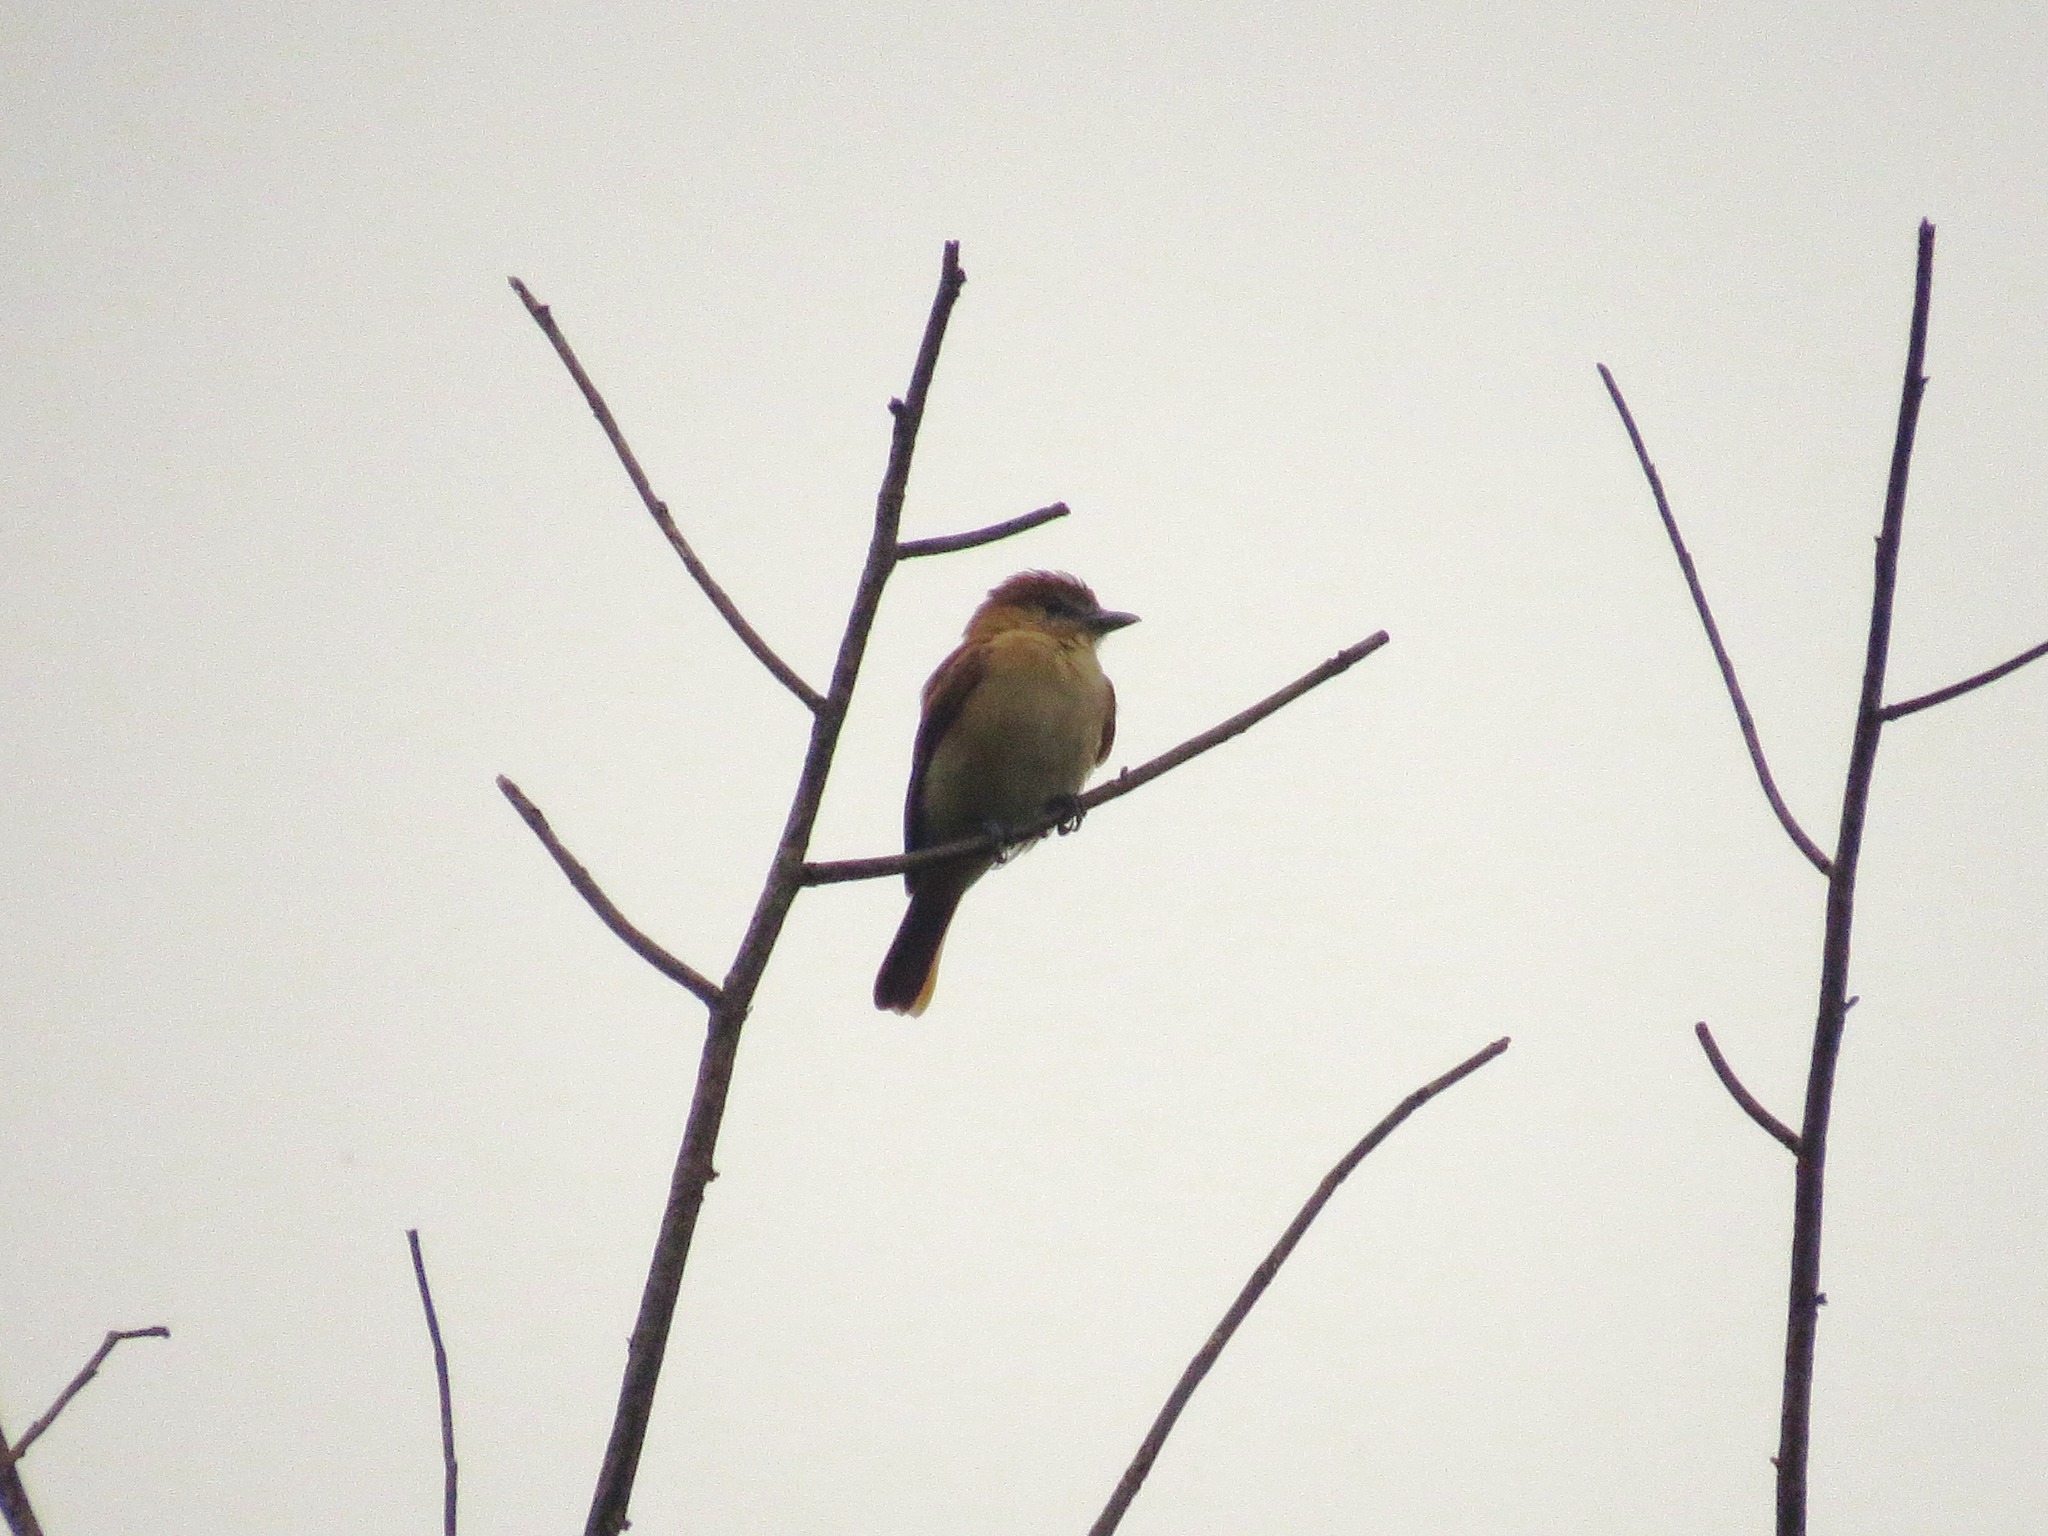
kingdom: Animalia
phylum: Chordata
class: Aves
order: Passeriformes
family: Cotingidae
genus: Pachyramphus
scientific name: Pachyramphus cinnamomeus
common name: Cinnamon becard
